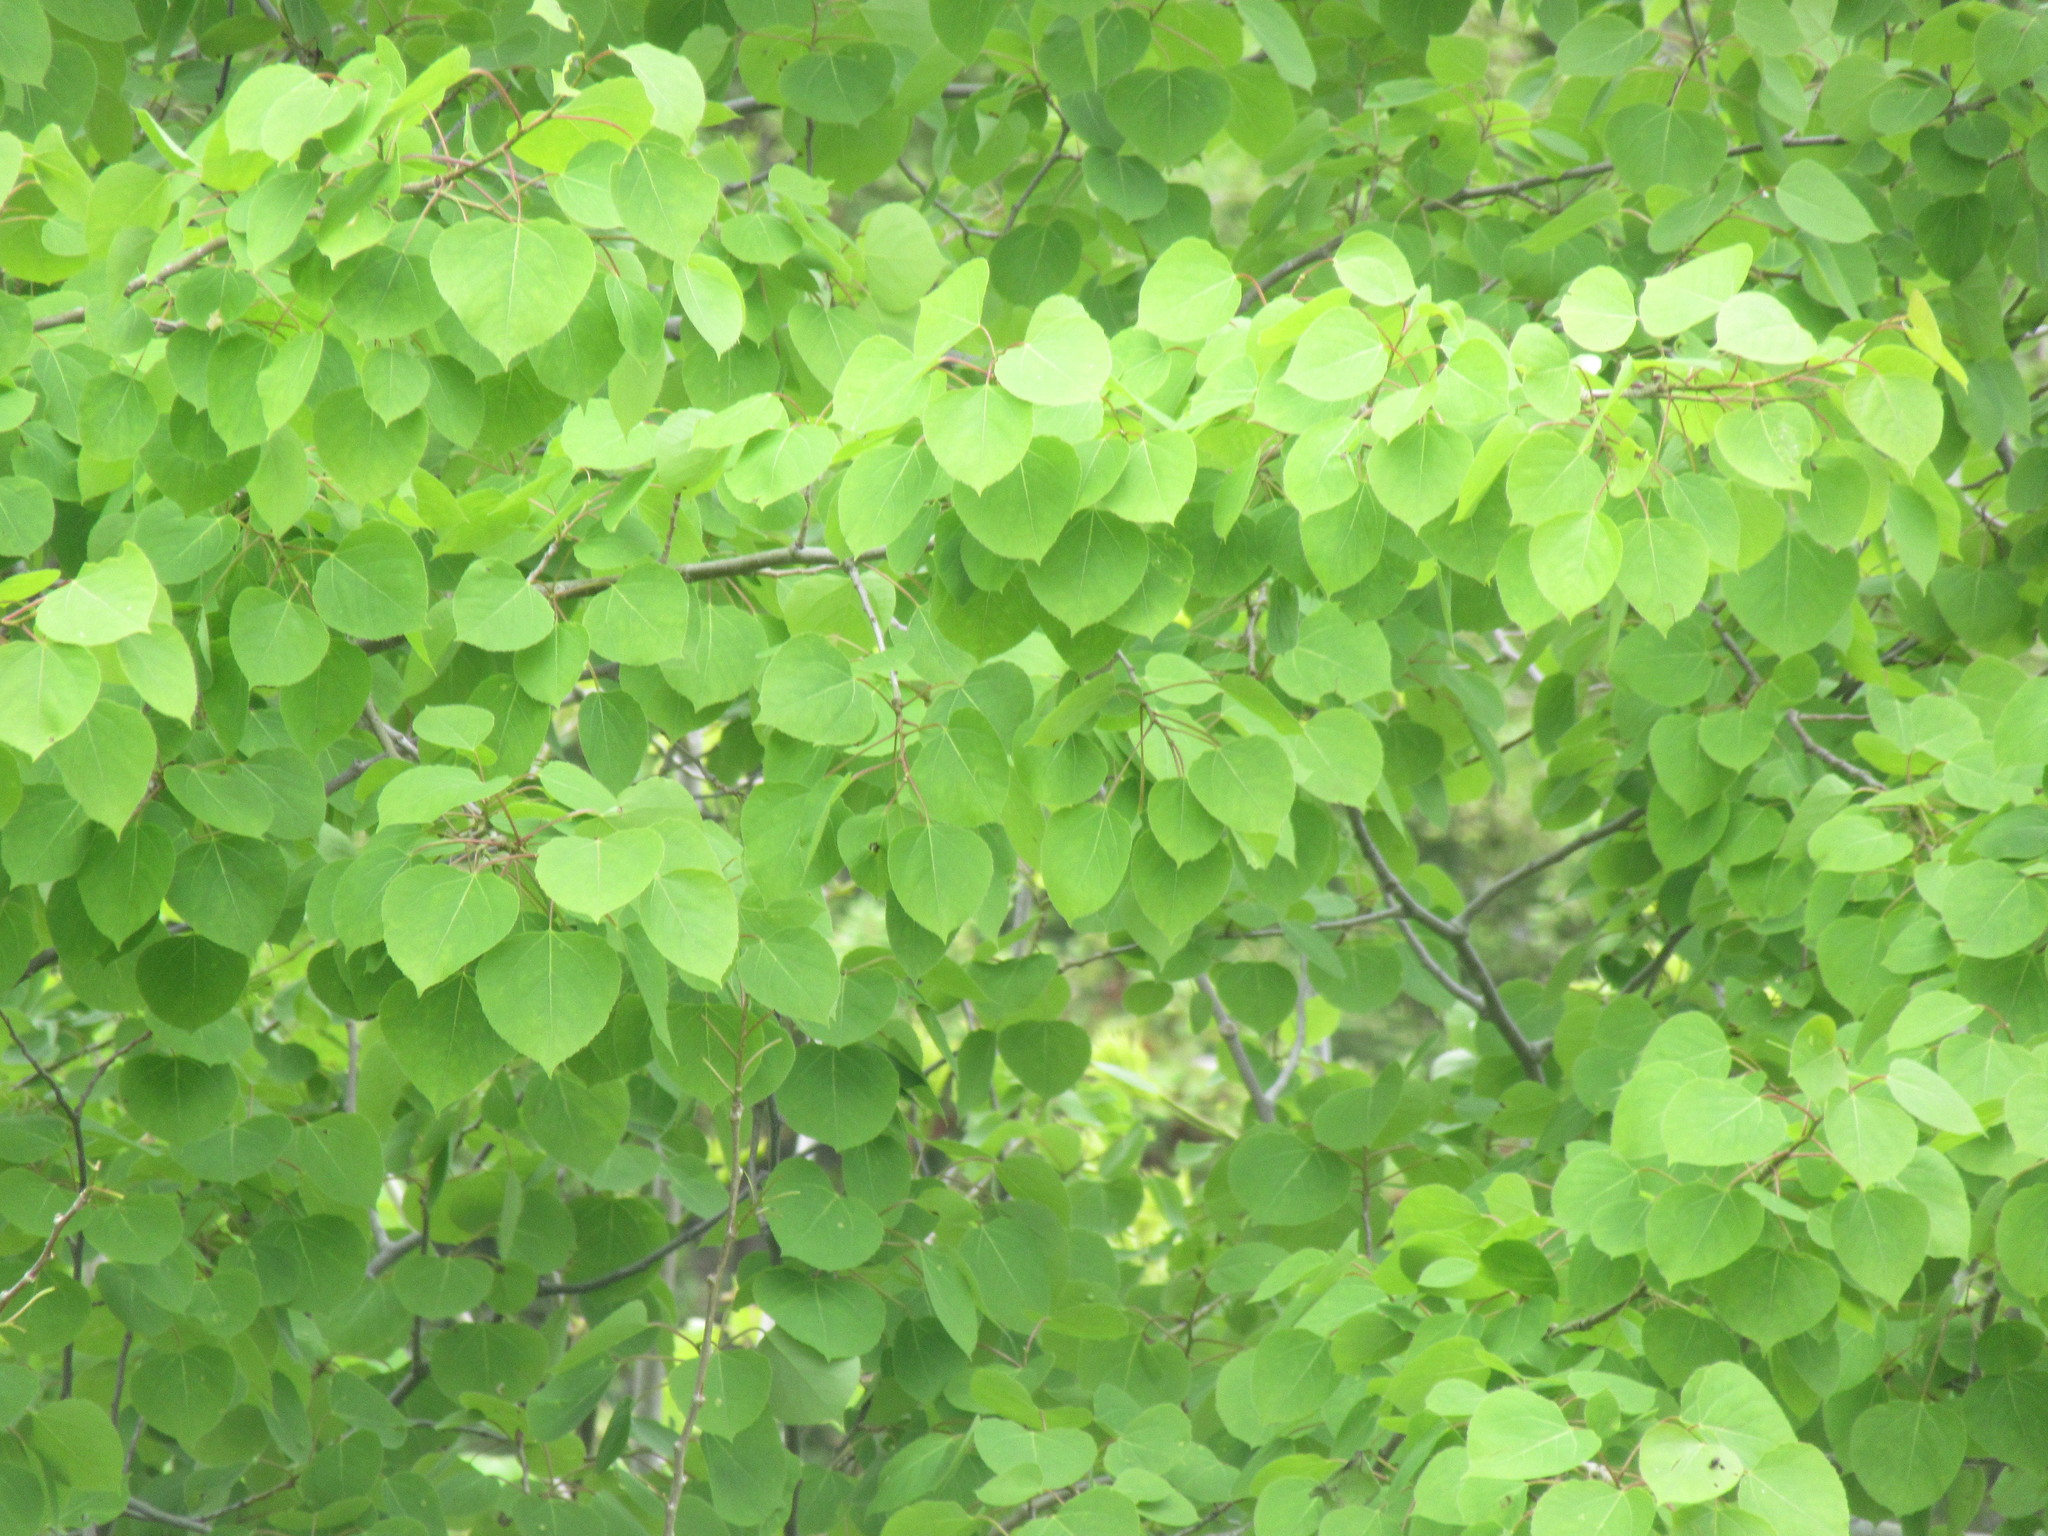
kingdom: Plantae
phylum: Tracheophyta
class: Magnoliopsida
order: Malpighiales
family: Salicaceae
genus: Populus
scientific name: Populus tremuloides
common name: Quaking aspen
